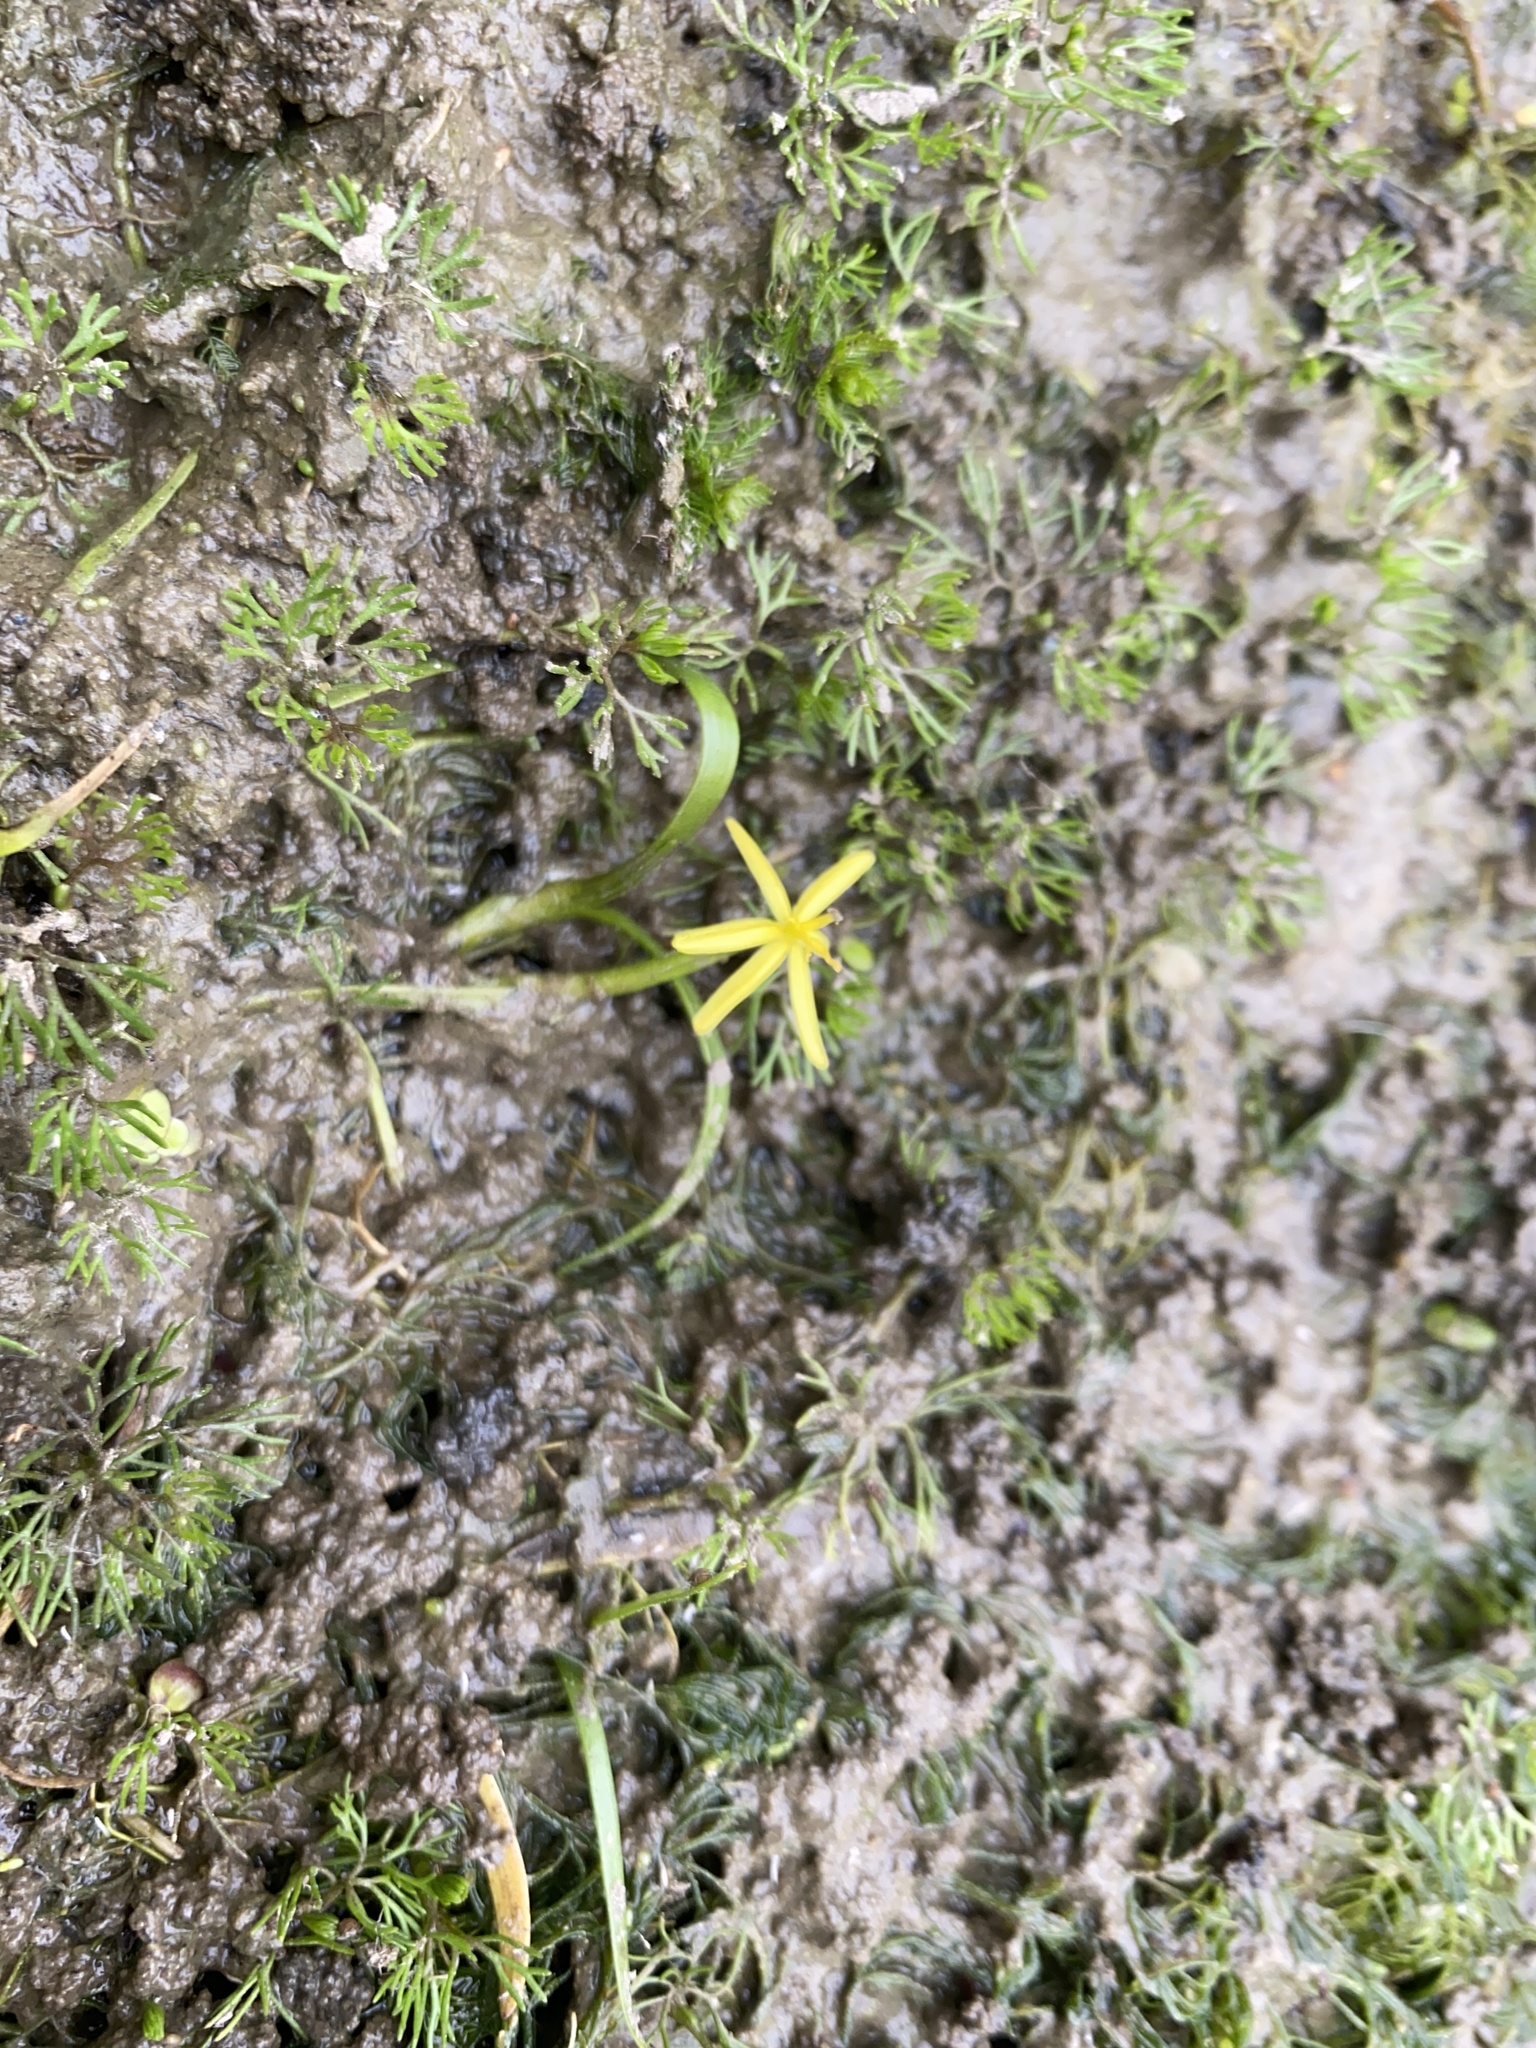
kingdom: Plantae
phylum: Tracheophyta
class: Liliopsida
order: Commelinales
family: Pontederiaceae
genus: Heteranthera
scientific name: Heteranthera dubia
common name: Grass-leaved mud plantain
